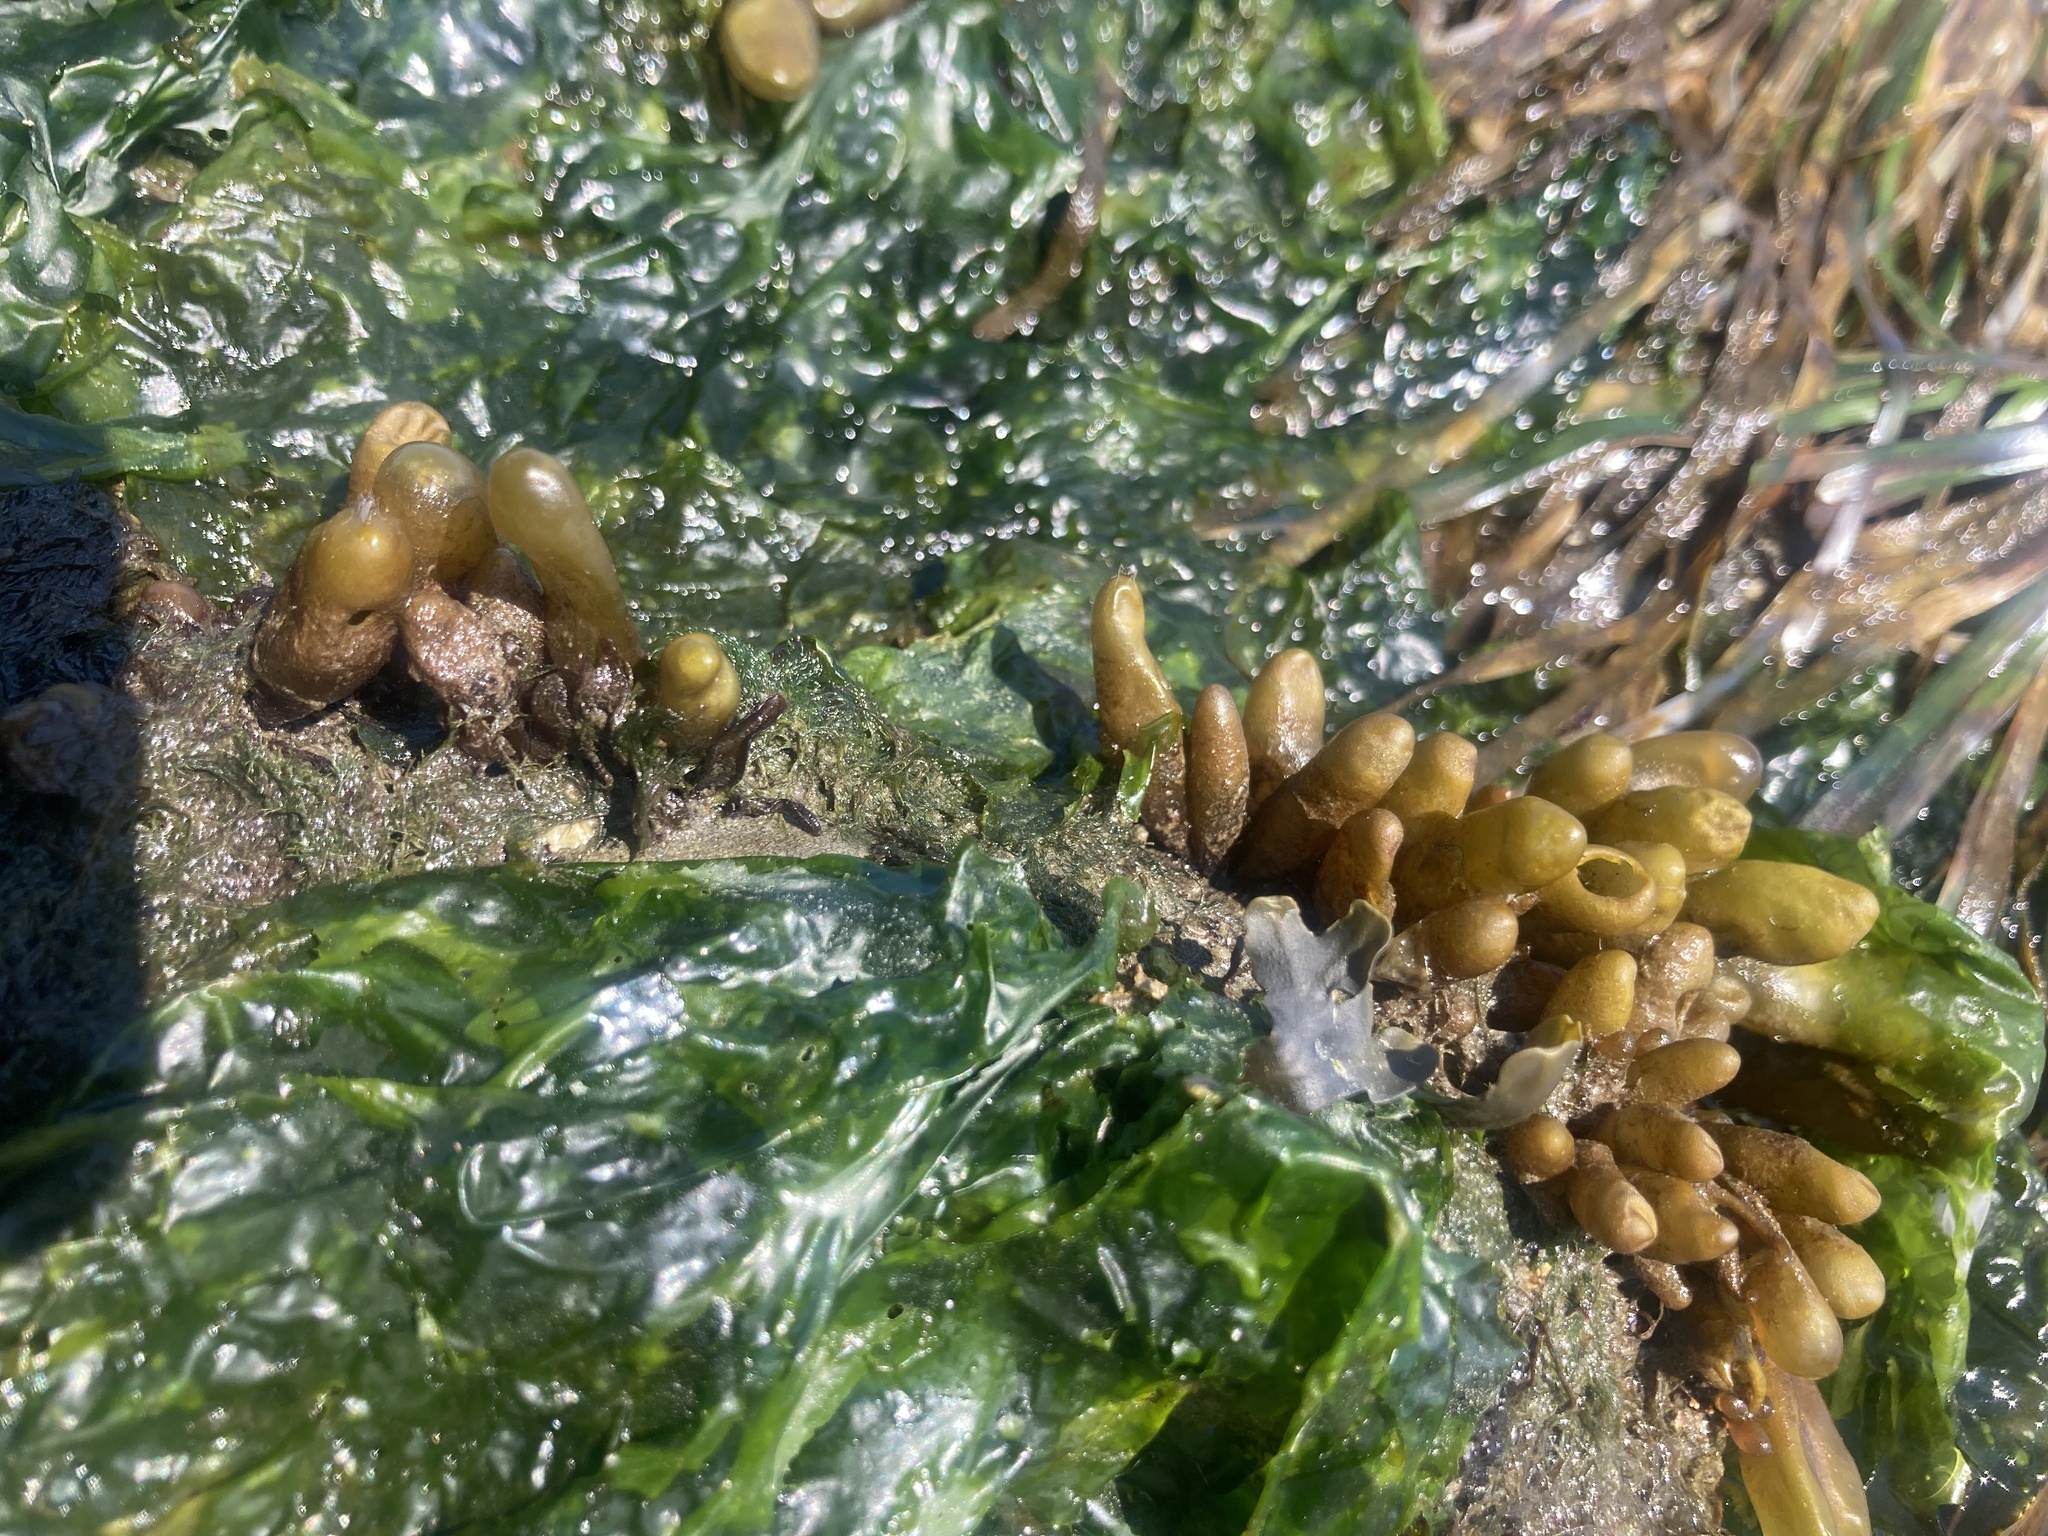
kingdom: Plantae
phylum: Rhodophyta
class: Florideophyceae
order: Palmariales
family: Palmariaceae
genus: Halosaccion
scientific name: Halosaccion glandiforme
